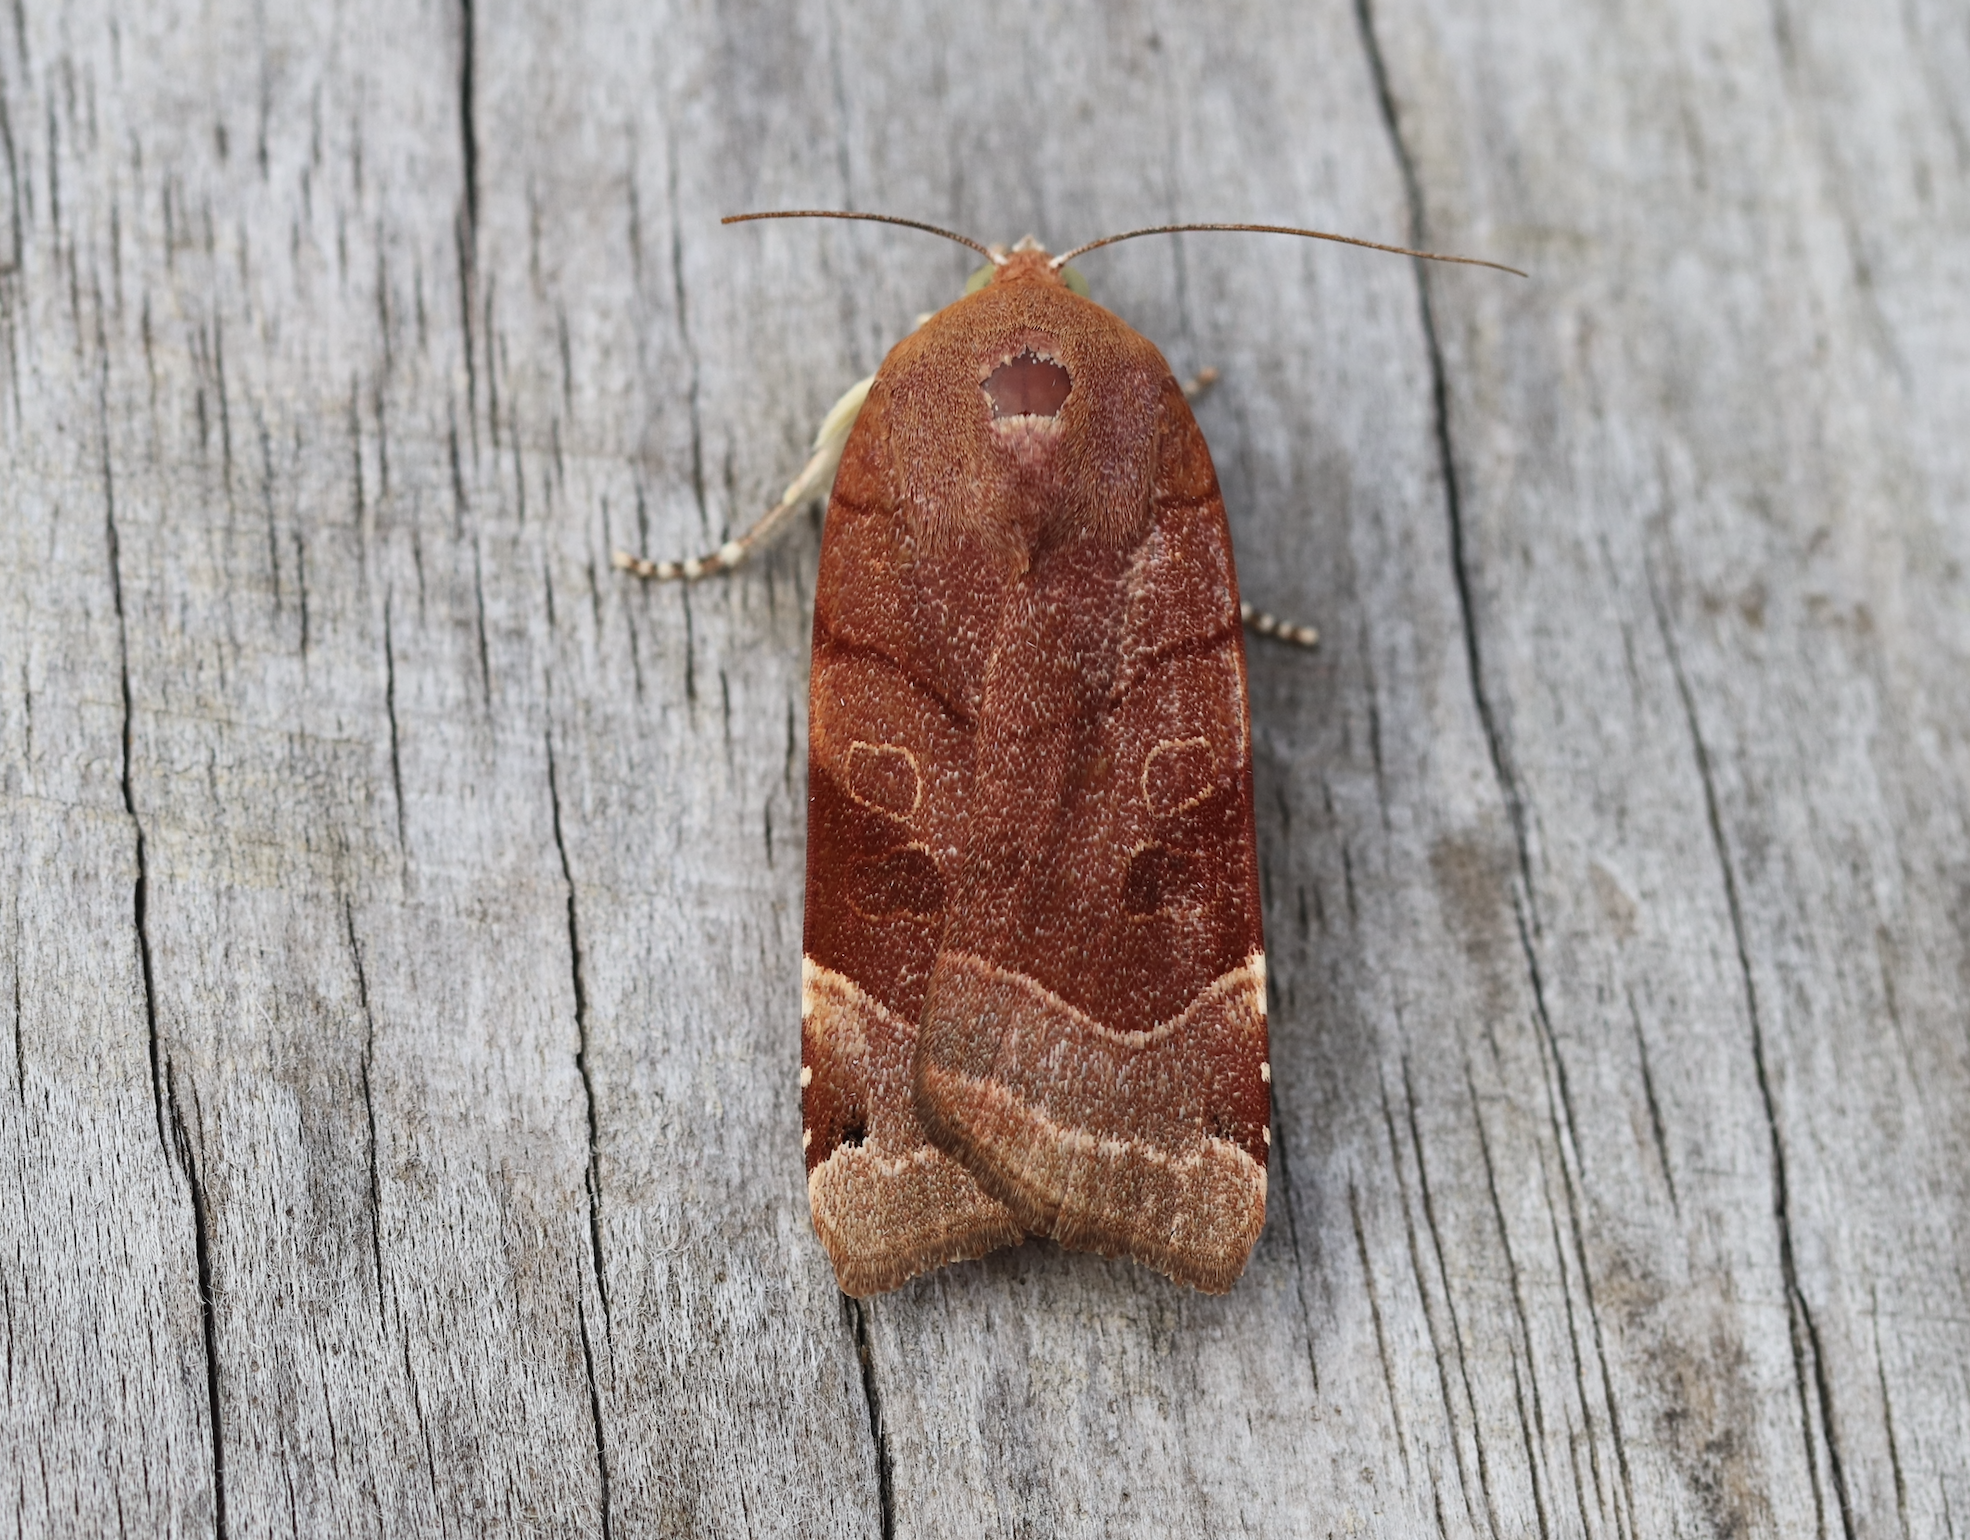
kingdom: Animalia
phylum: Arthropoda
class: Insecta
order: Lepidoptera
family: Noctuidae
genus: Noctua
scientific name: Noctua fimbriata
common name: Broad-bordered yellow underwing
